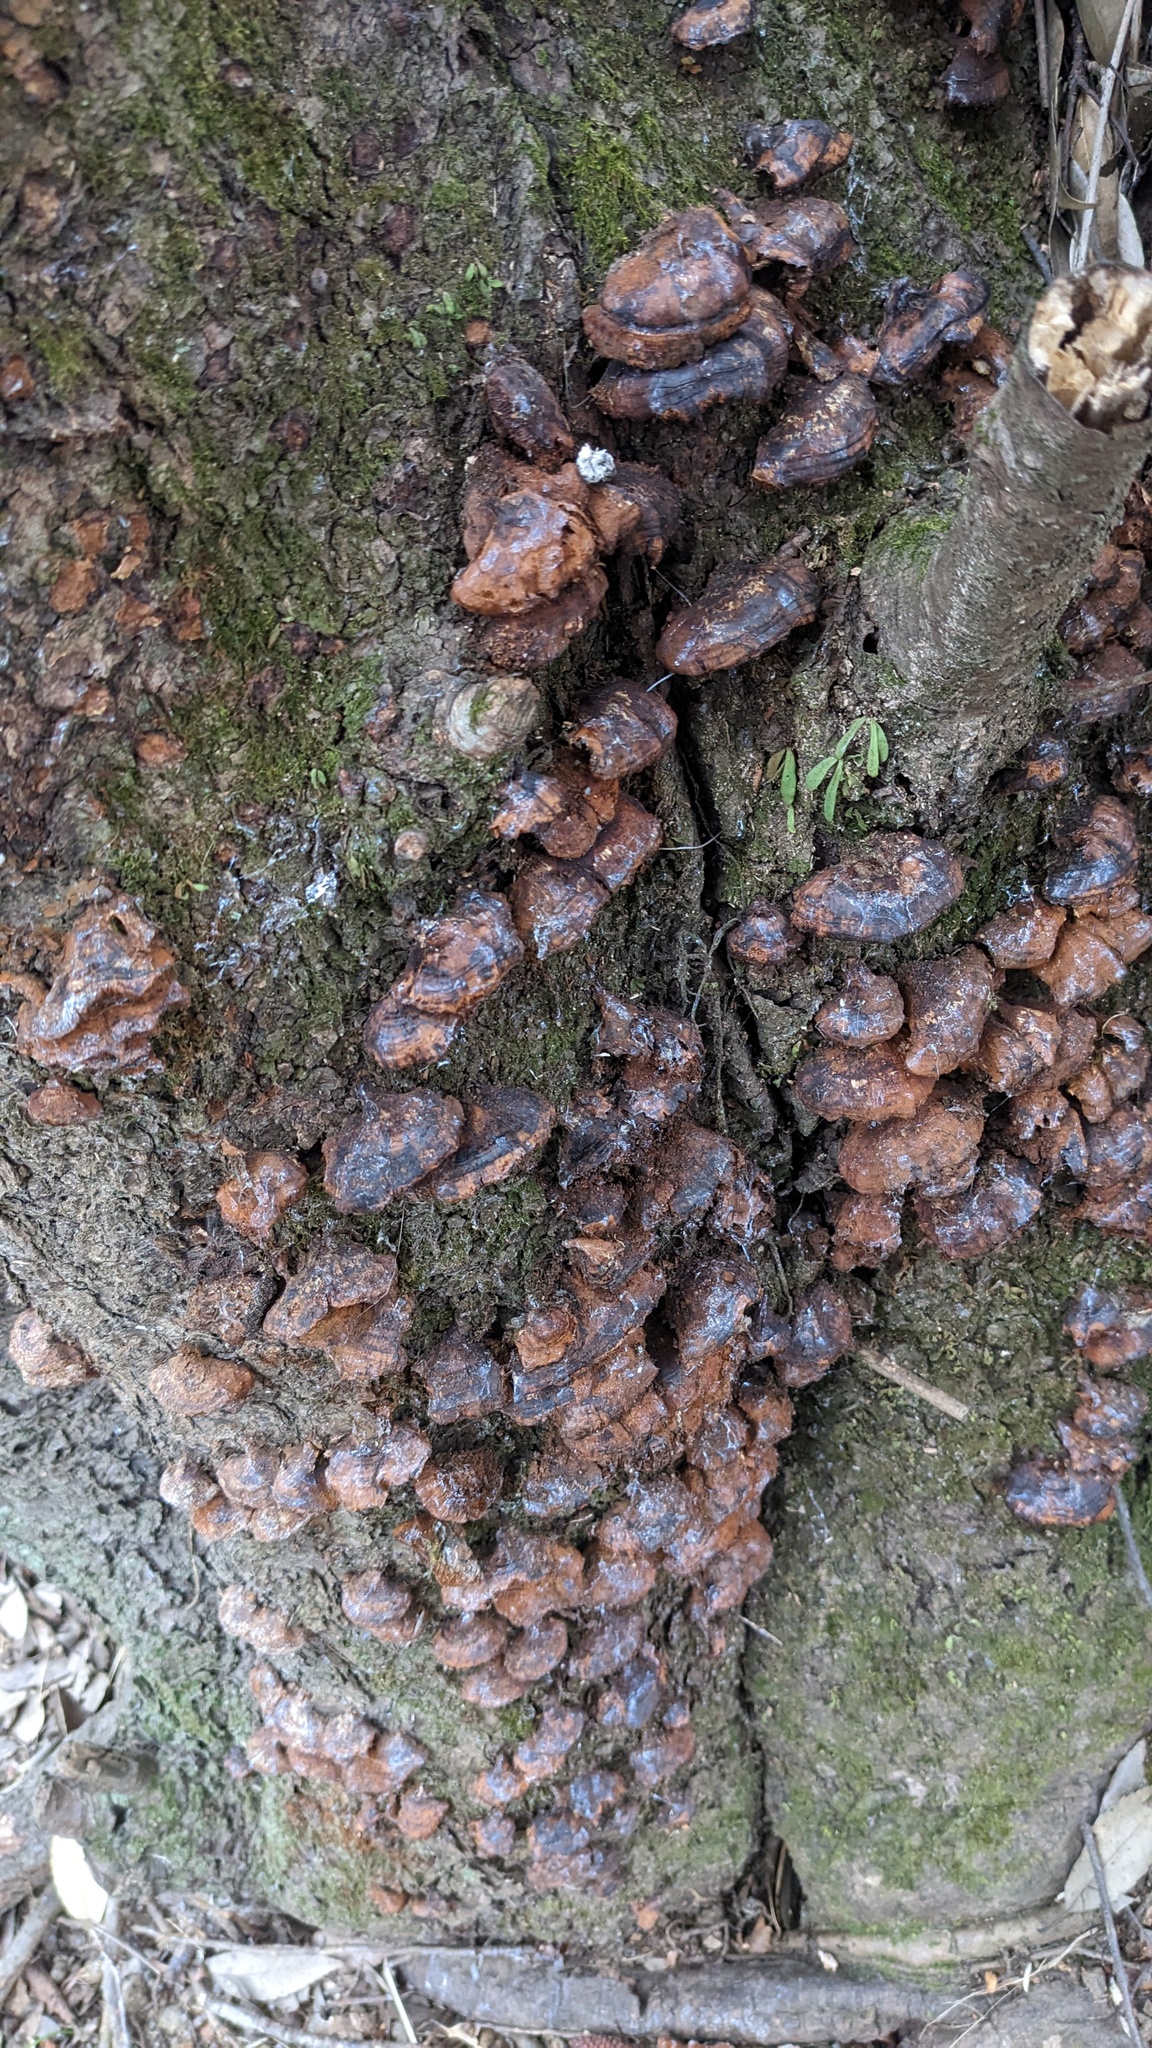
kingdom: Fungi
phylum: Basidiomycota
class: Agaricomycetes
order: Hymenochaetales
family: Hymenochaetaceae
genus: Inocutis
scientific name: Inocutis mikadoi
